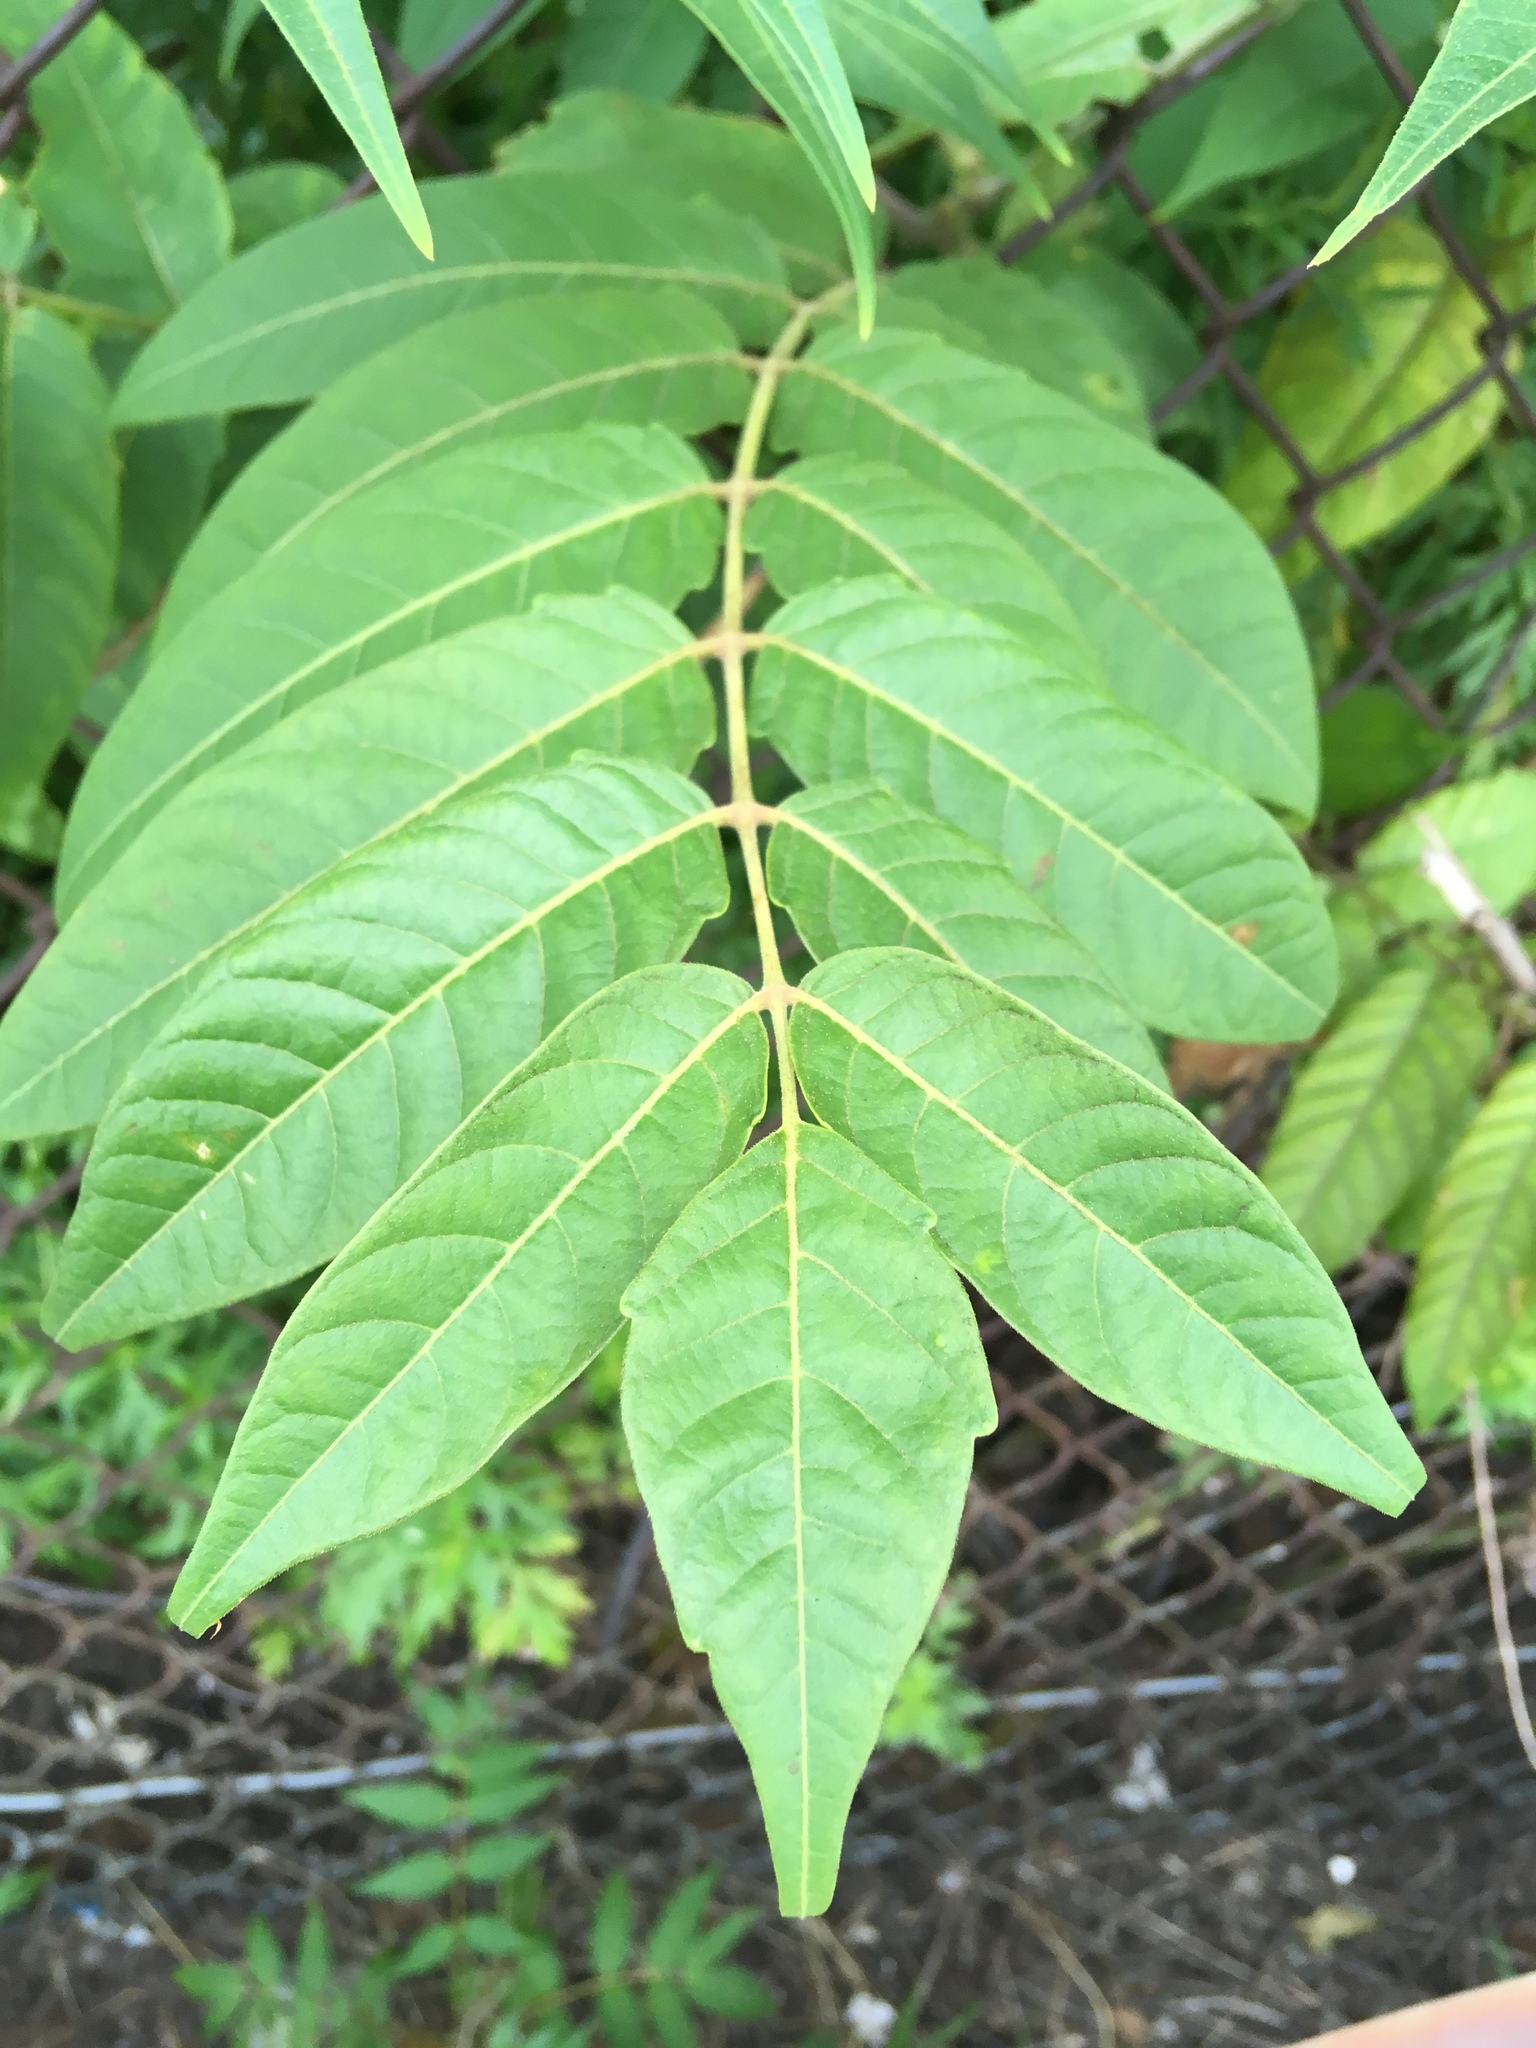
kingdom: Plantae
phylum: Tracheophyta
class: Magnoliopsida
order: Sapindales
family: Simaroubaceae
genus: Ailanthus
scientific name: Ailanthus altissima
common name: Tree-of-heaven
